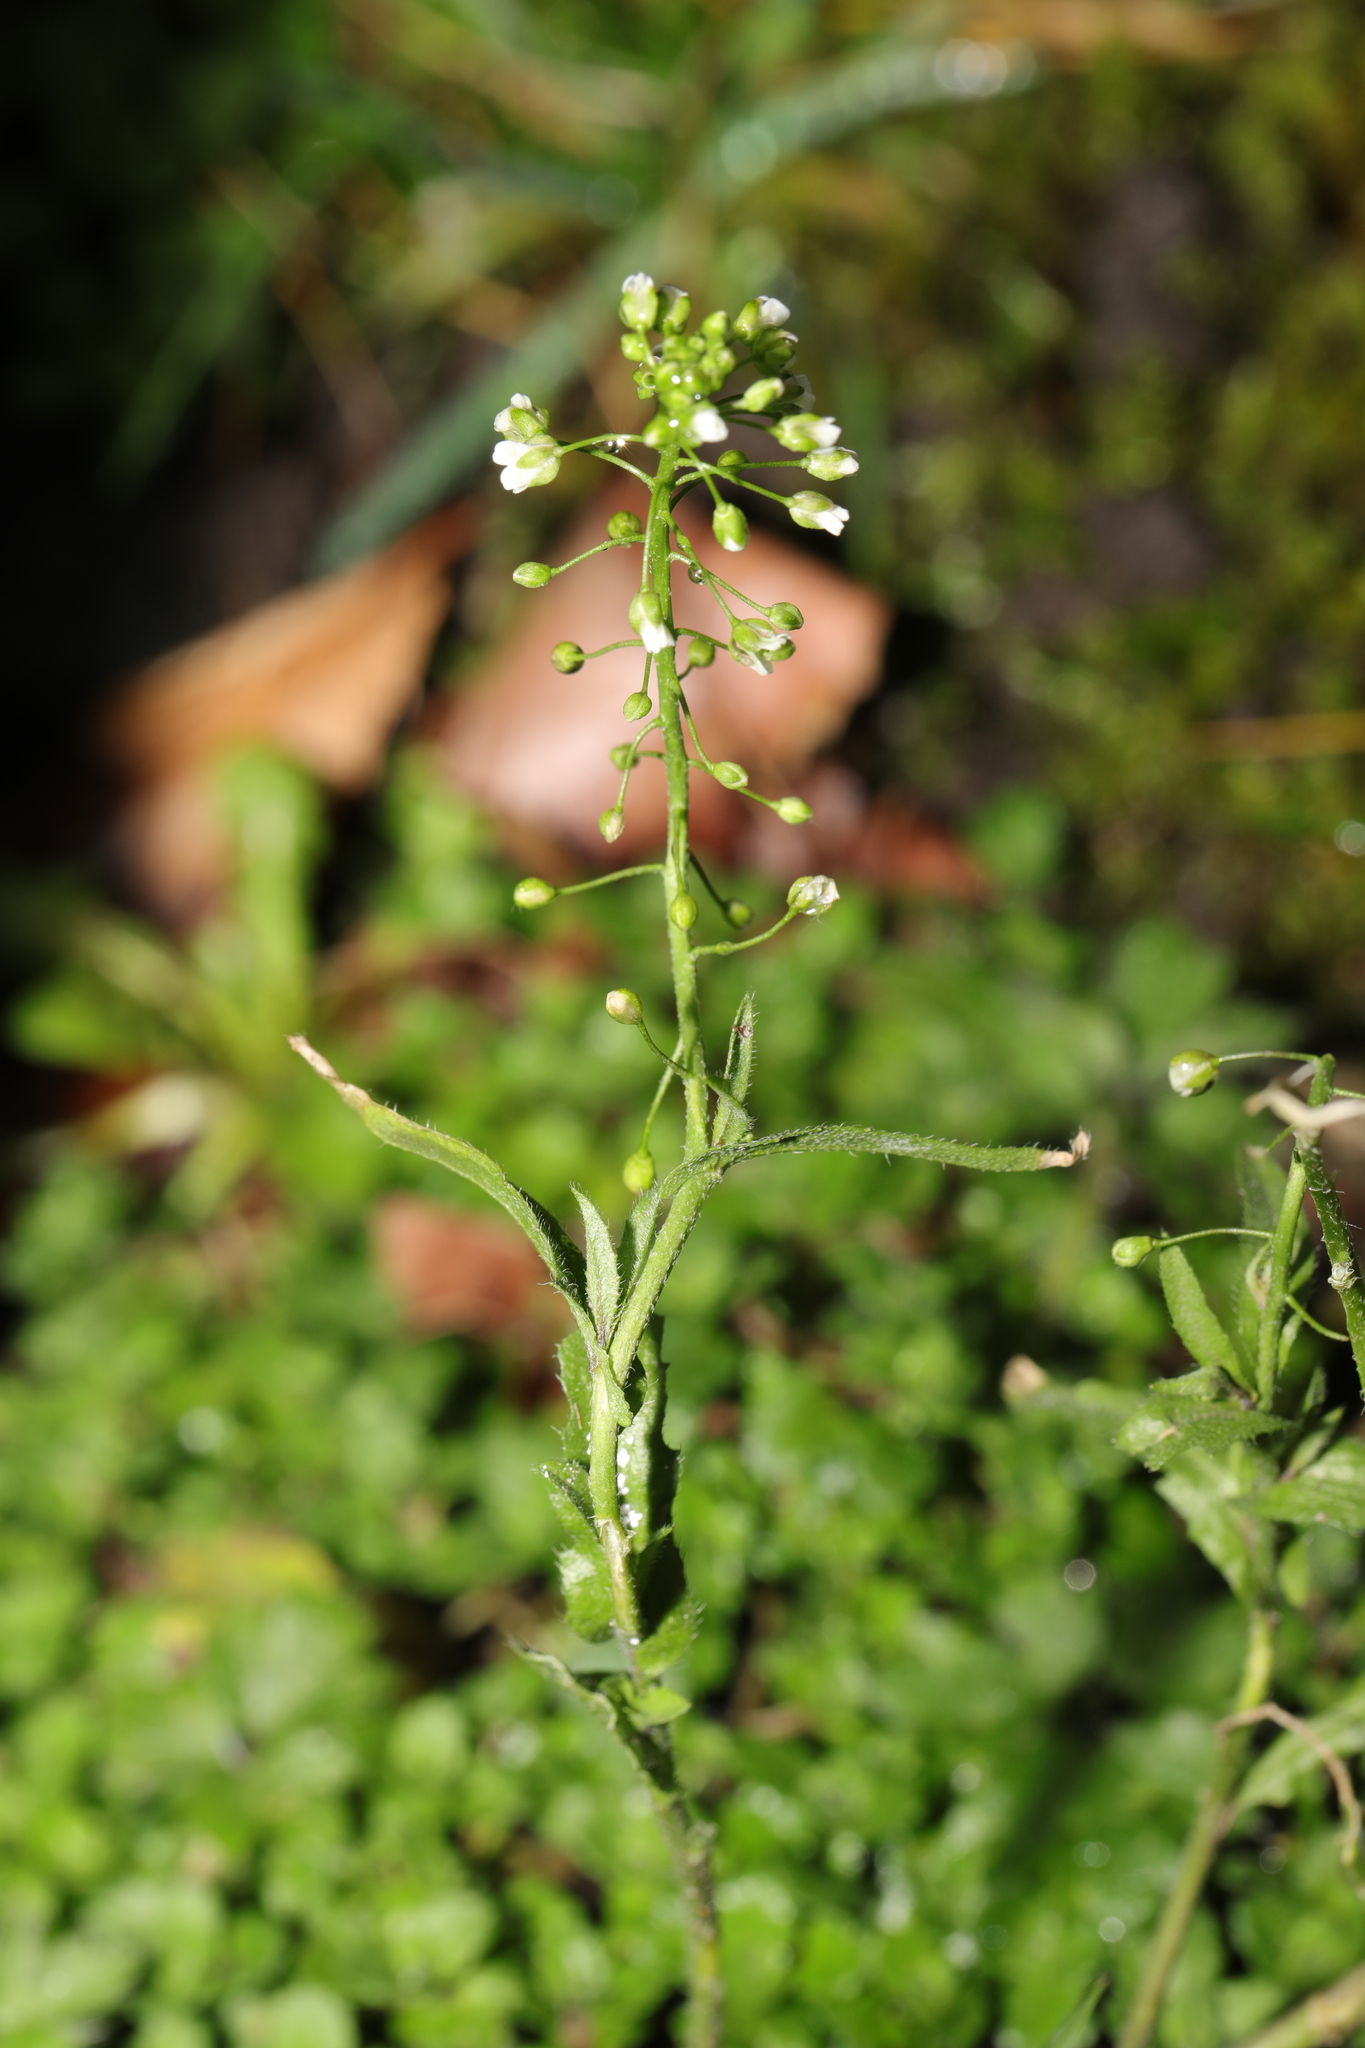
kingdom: Plantae
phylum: Tracheophyta
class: Magnoliopsida
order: Brassicales
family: Brassicaceae
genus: Capsella
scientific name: Capsella bursa-pastoris
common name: Shepherd's purse
